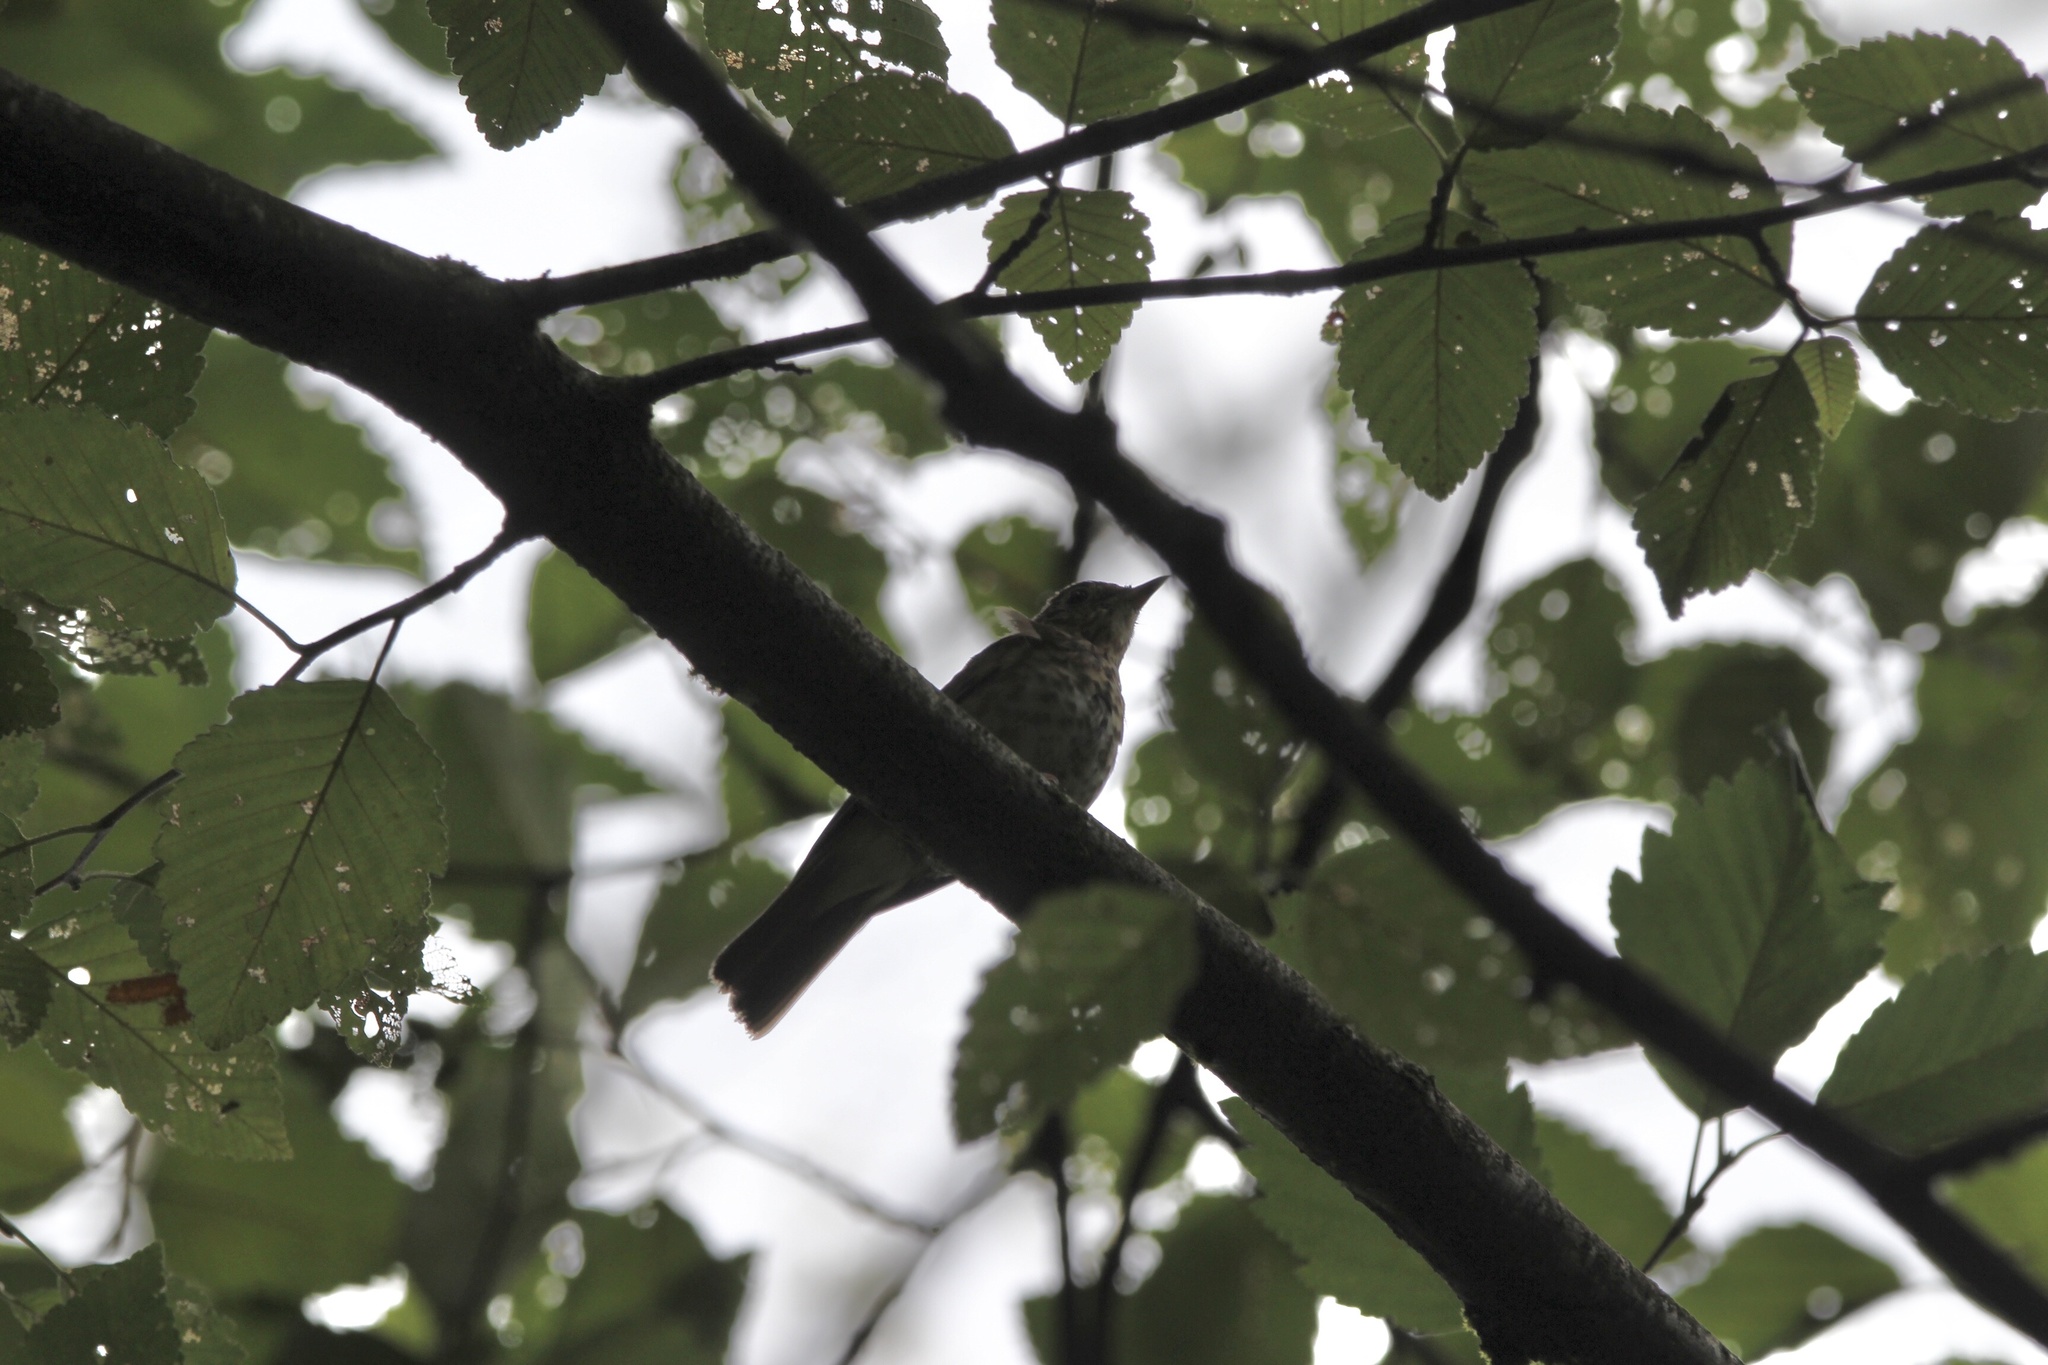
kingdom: Animalia
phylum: Chordata
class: Aves
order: Passeriformes
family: Turdidae
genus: Catharus
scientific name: Catharus ustulatus
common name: Swainson's thrush
